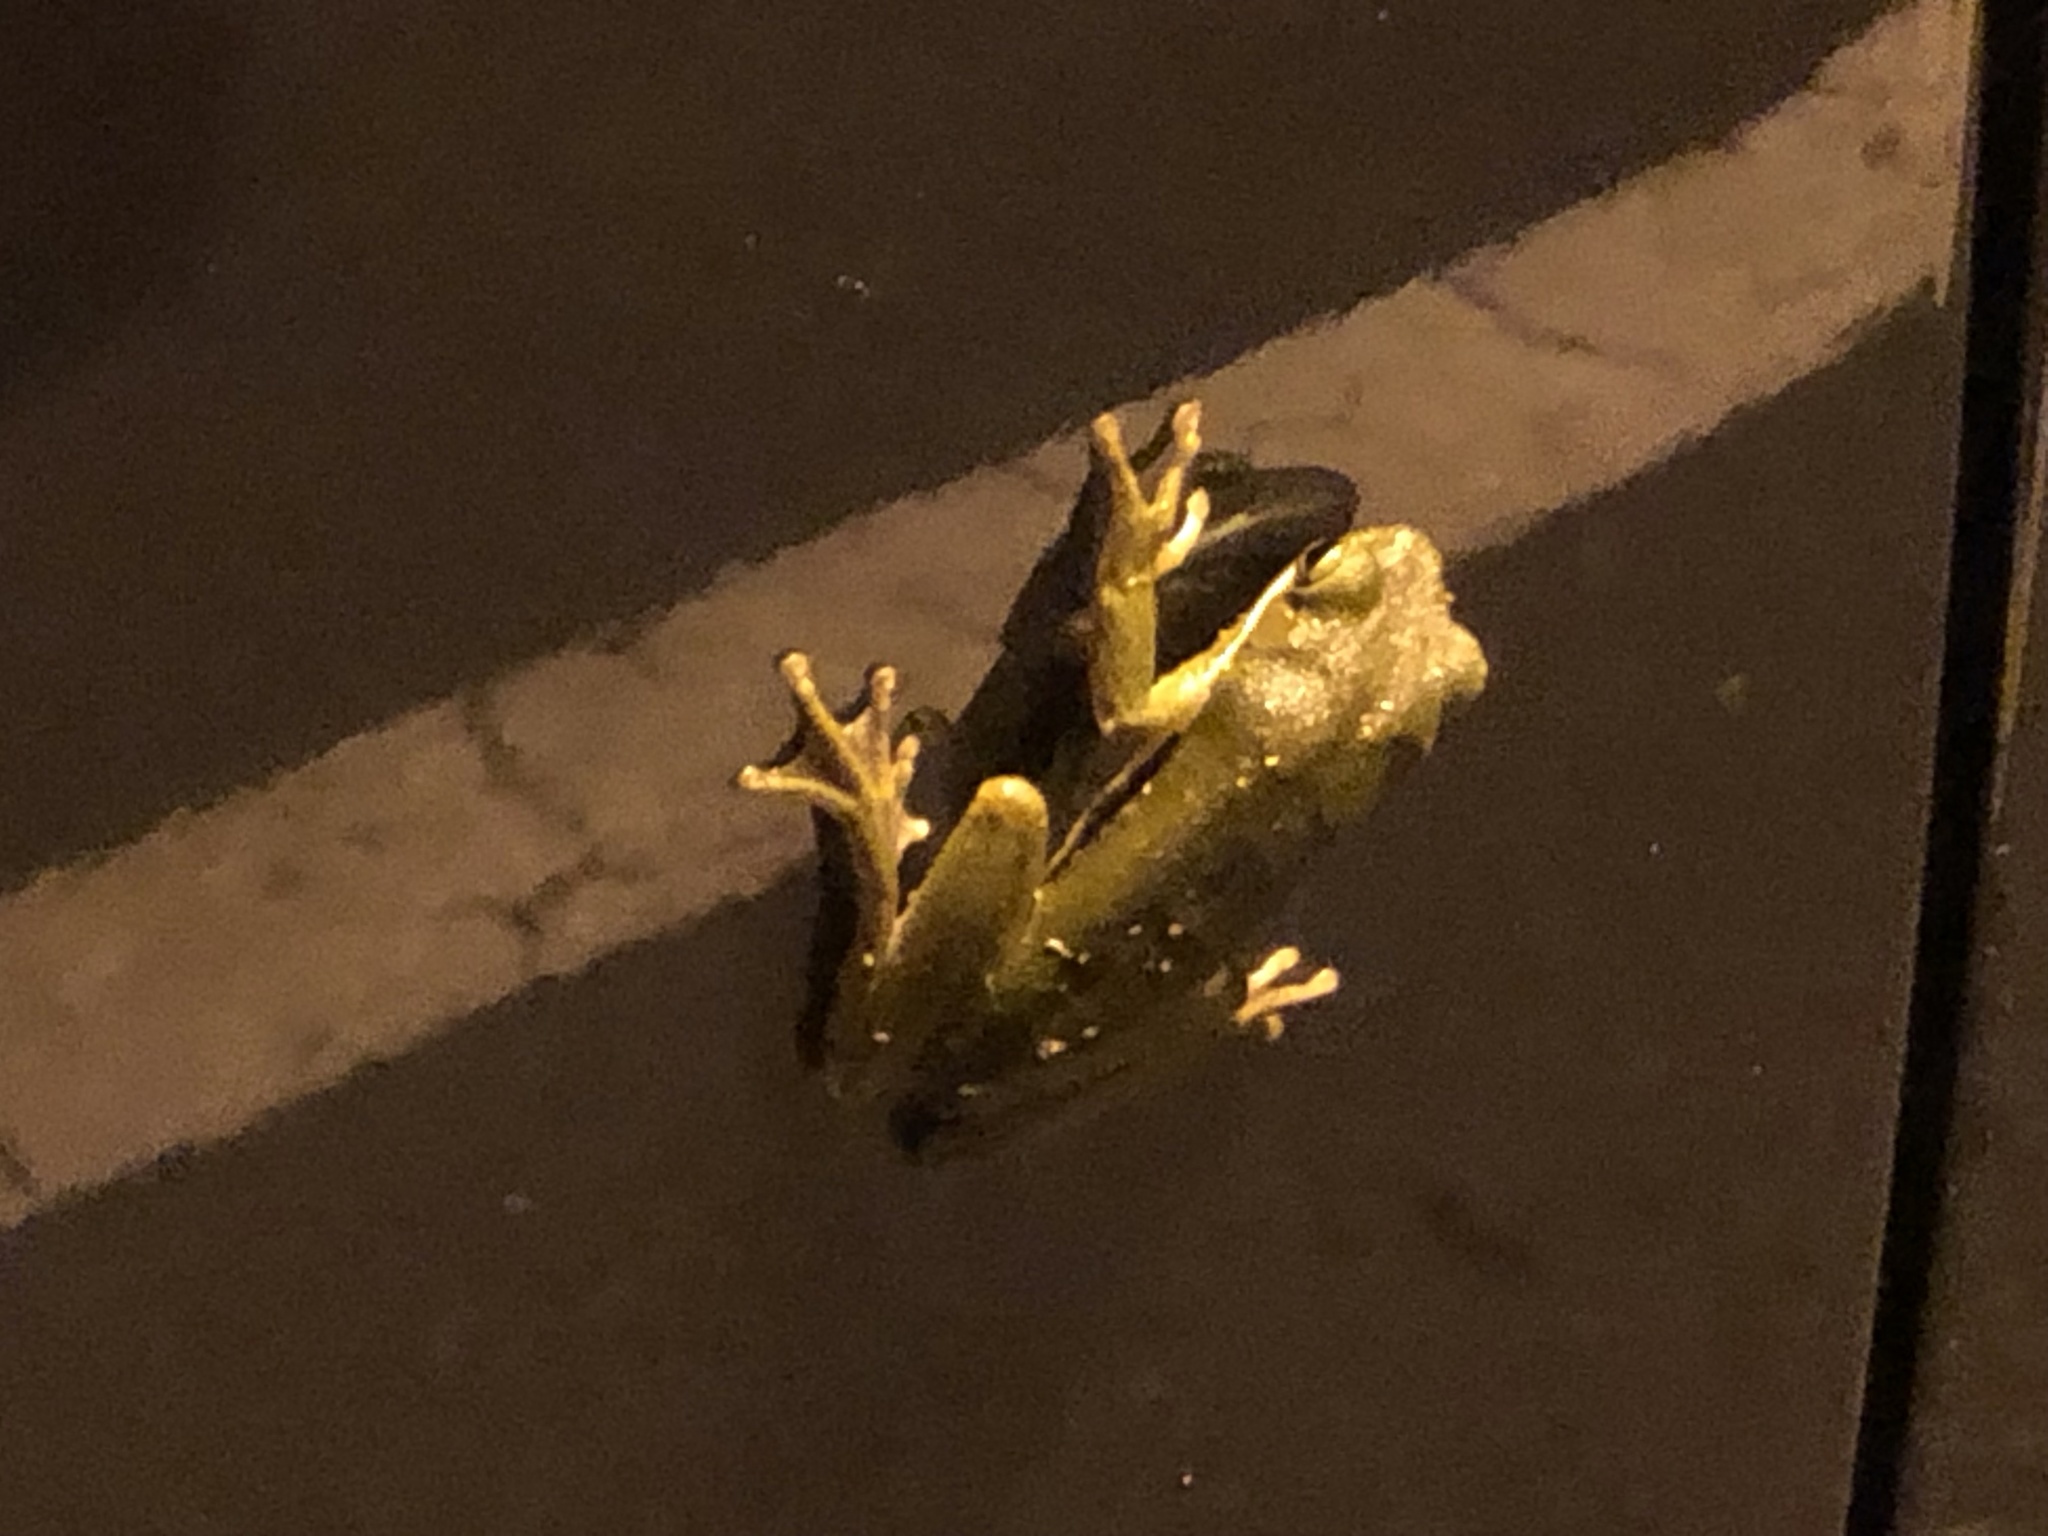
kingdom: Animalia
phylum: Chordata
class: Amphibia
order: Anura
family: Hylidae
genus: Dryophytes
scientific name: Dryophytes cinereus
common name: Green treefrog
